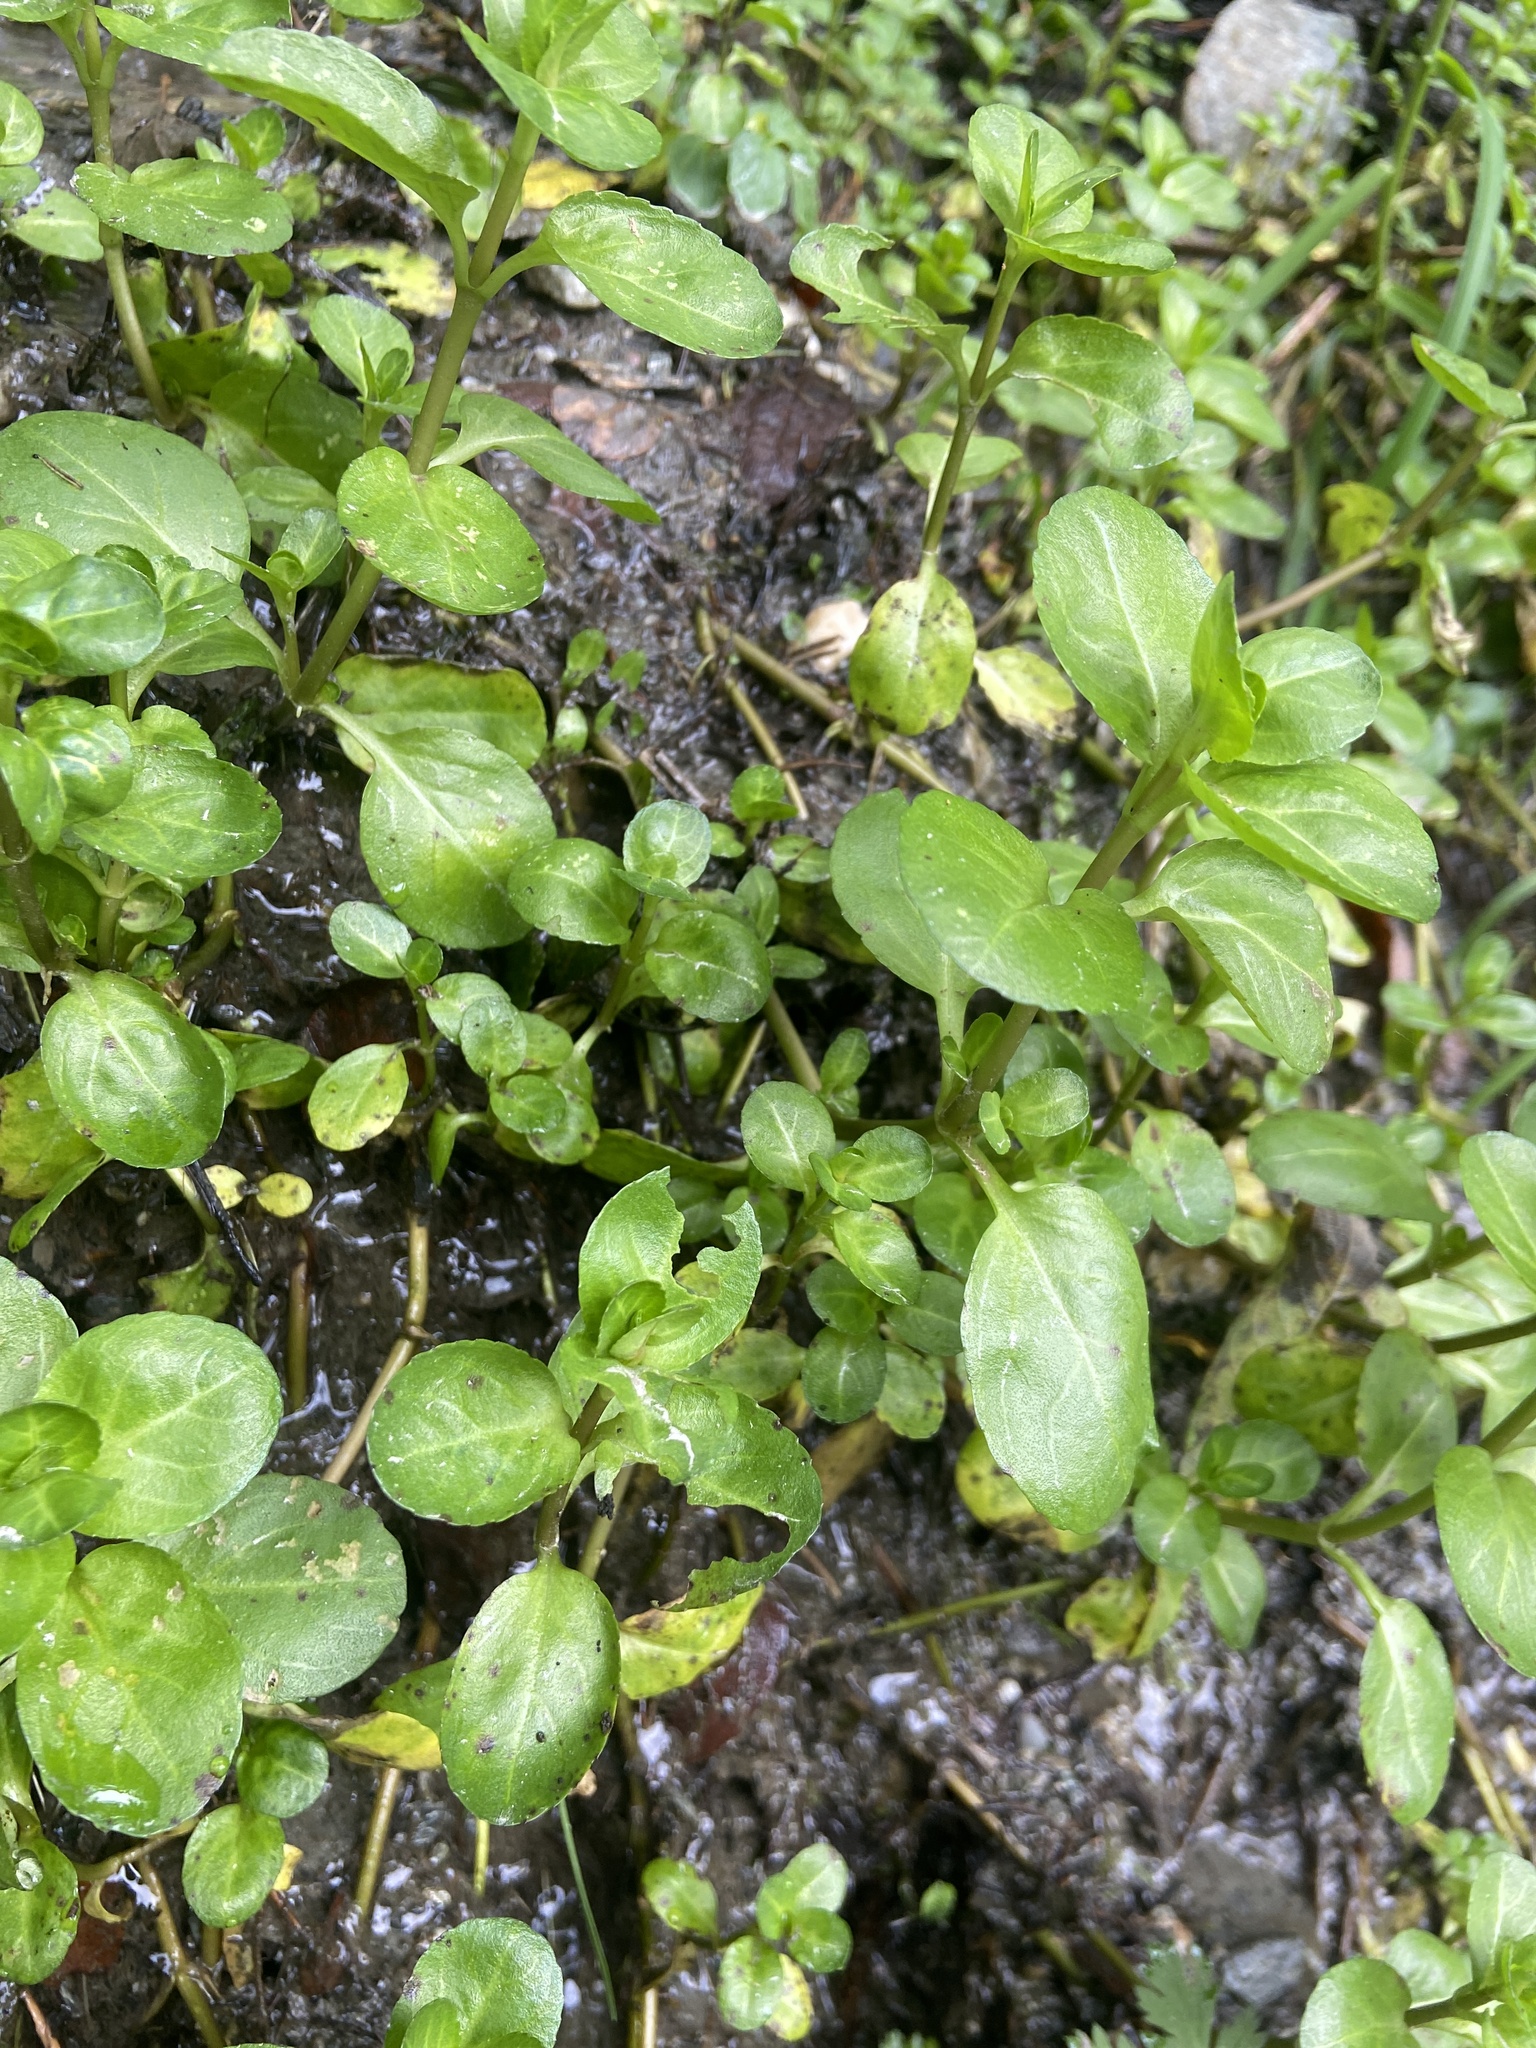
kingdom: Plantae
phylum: Tracheophyta
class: Magnoliopsida
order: Lamiales
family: Plantaginaceae
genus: Veronica
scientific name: Veronica beccabunga
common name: Brooklime
